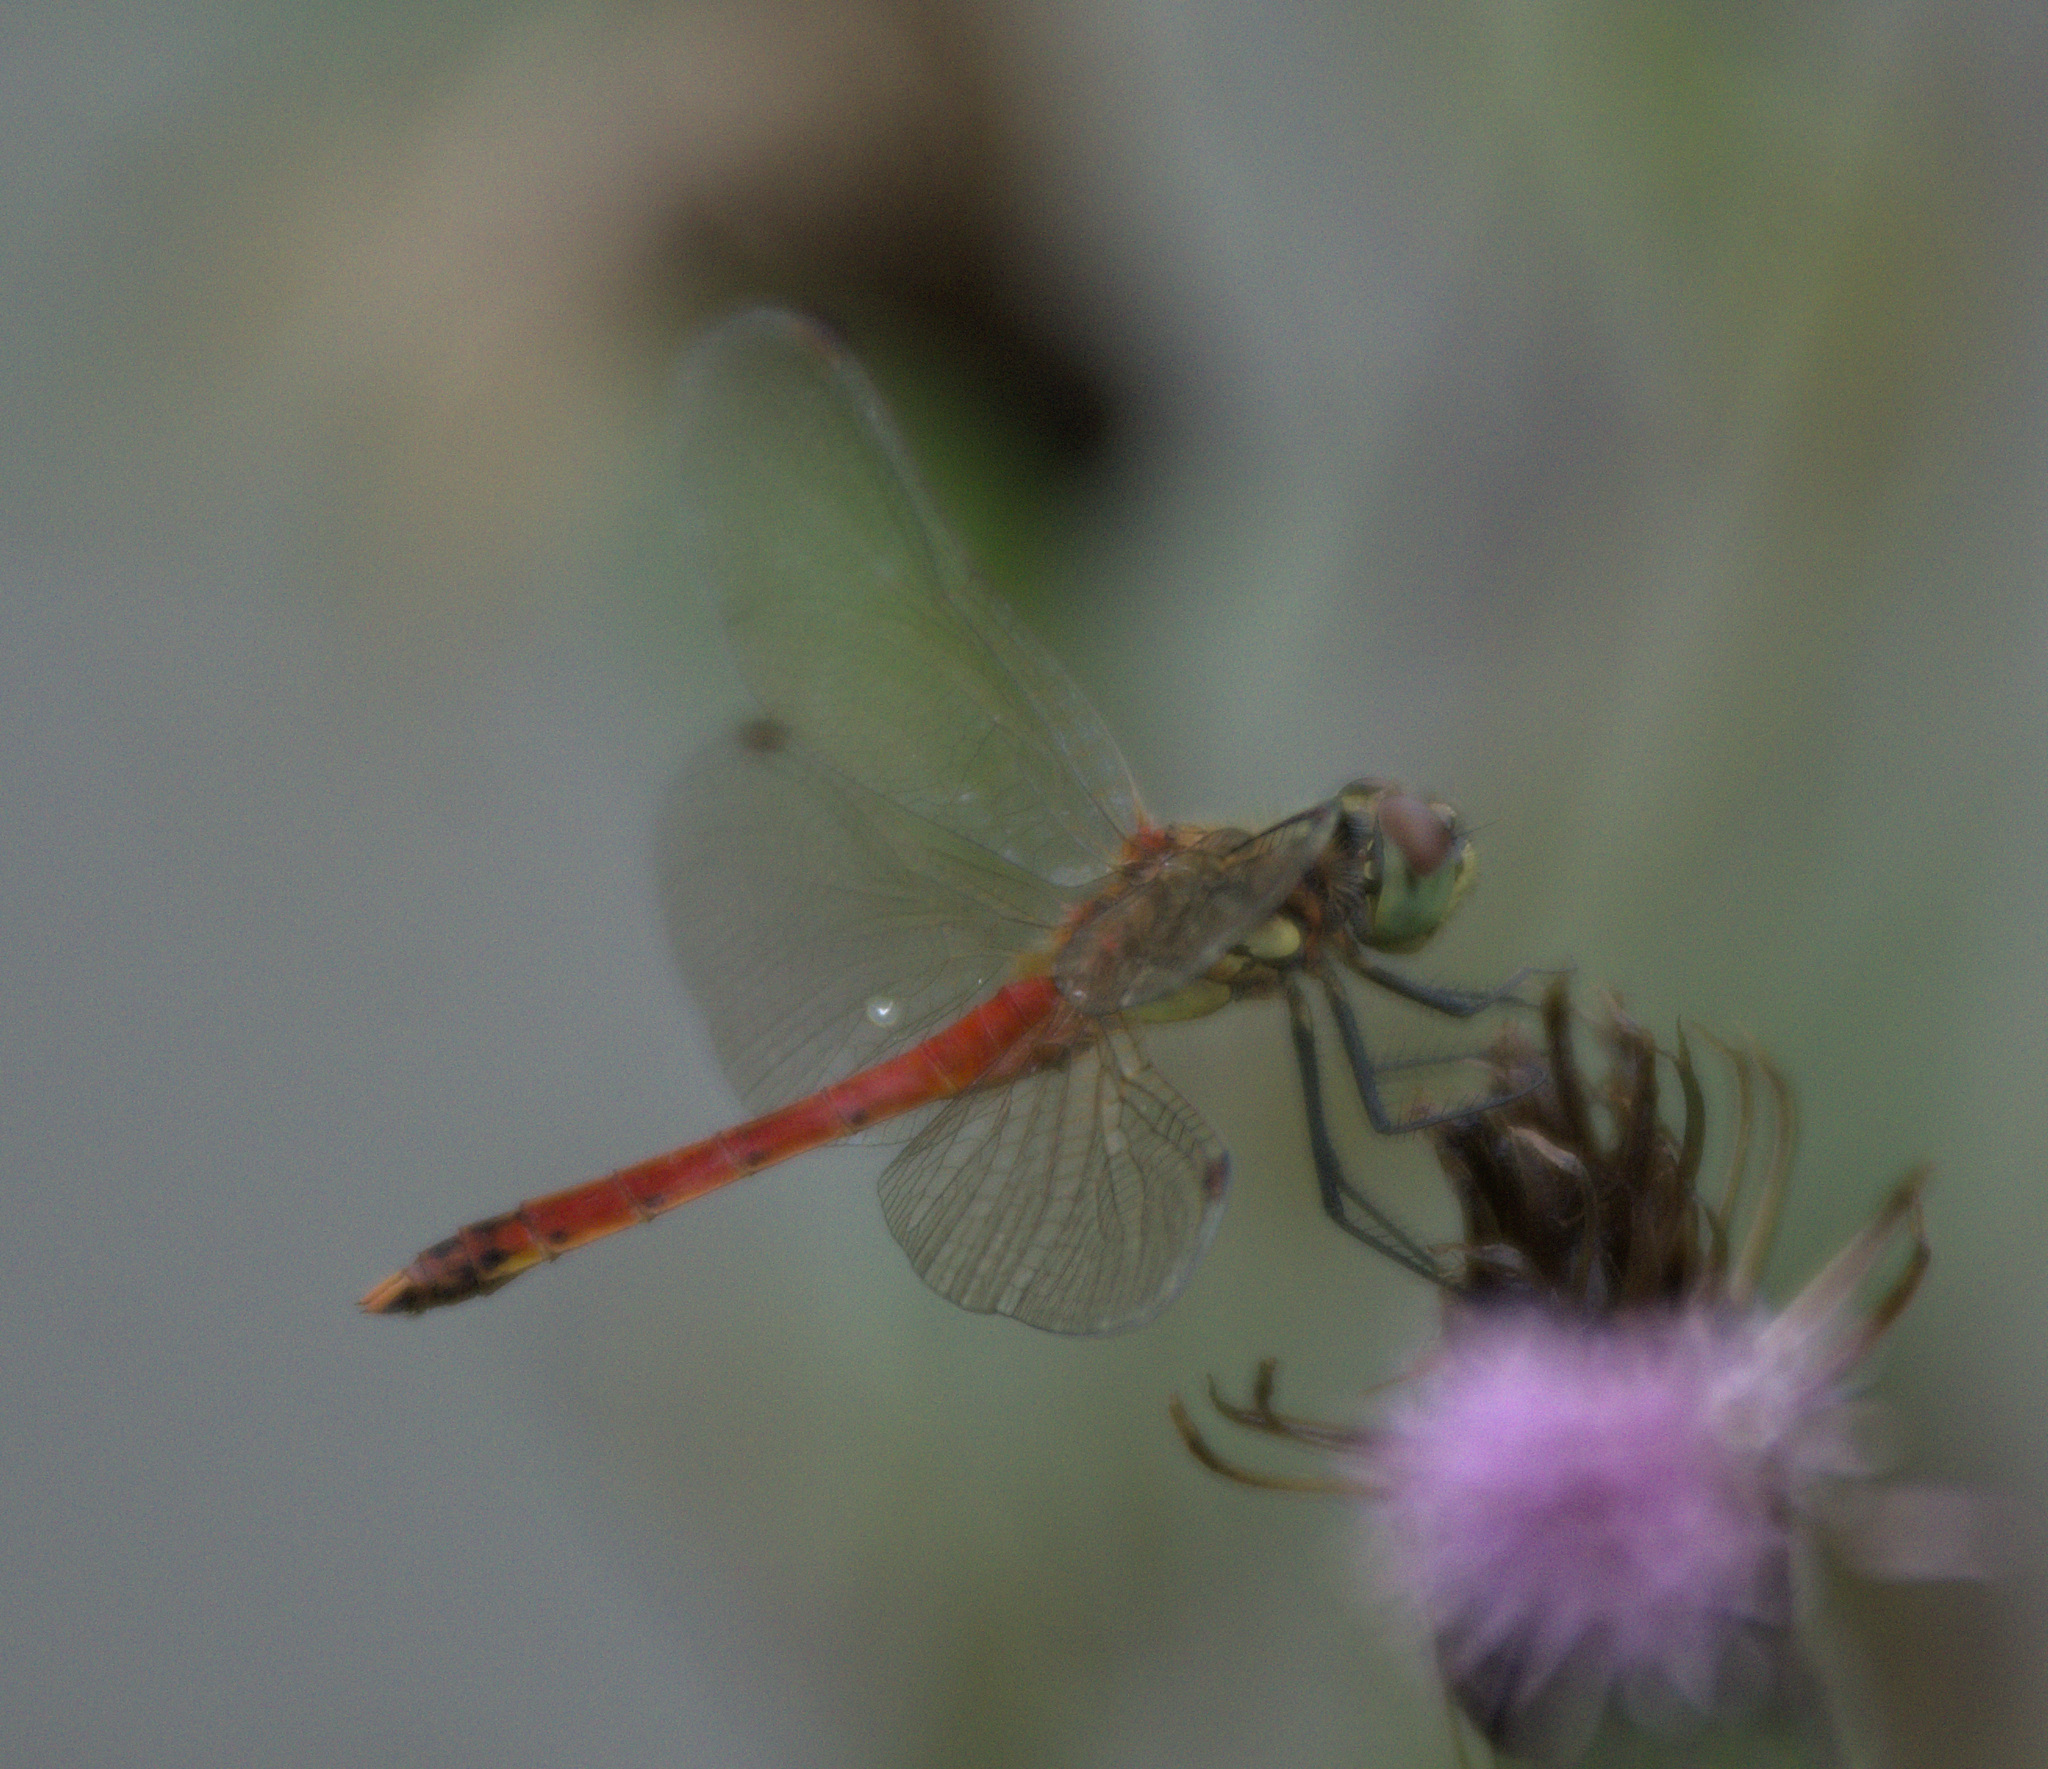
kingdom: Animalia
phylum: Arthropoda
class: Insecta
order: Odonata
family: Libellulidae
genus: Sympetrum
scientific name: Sympetrum depressiusculum
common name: Spotted darter
